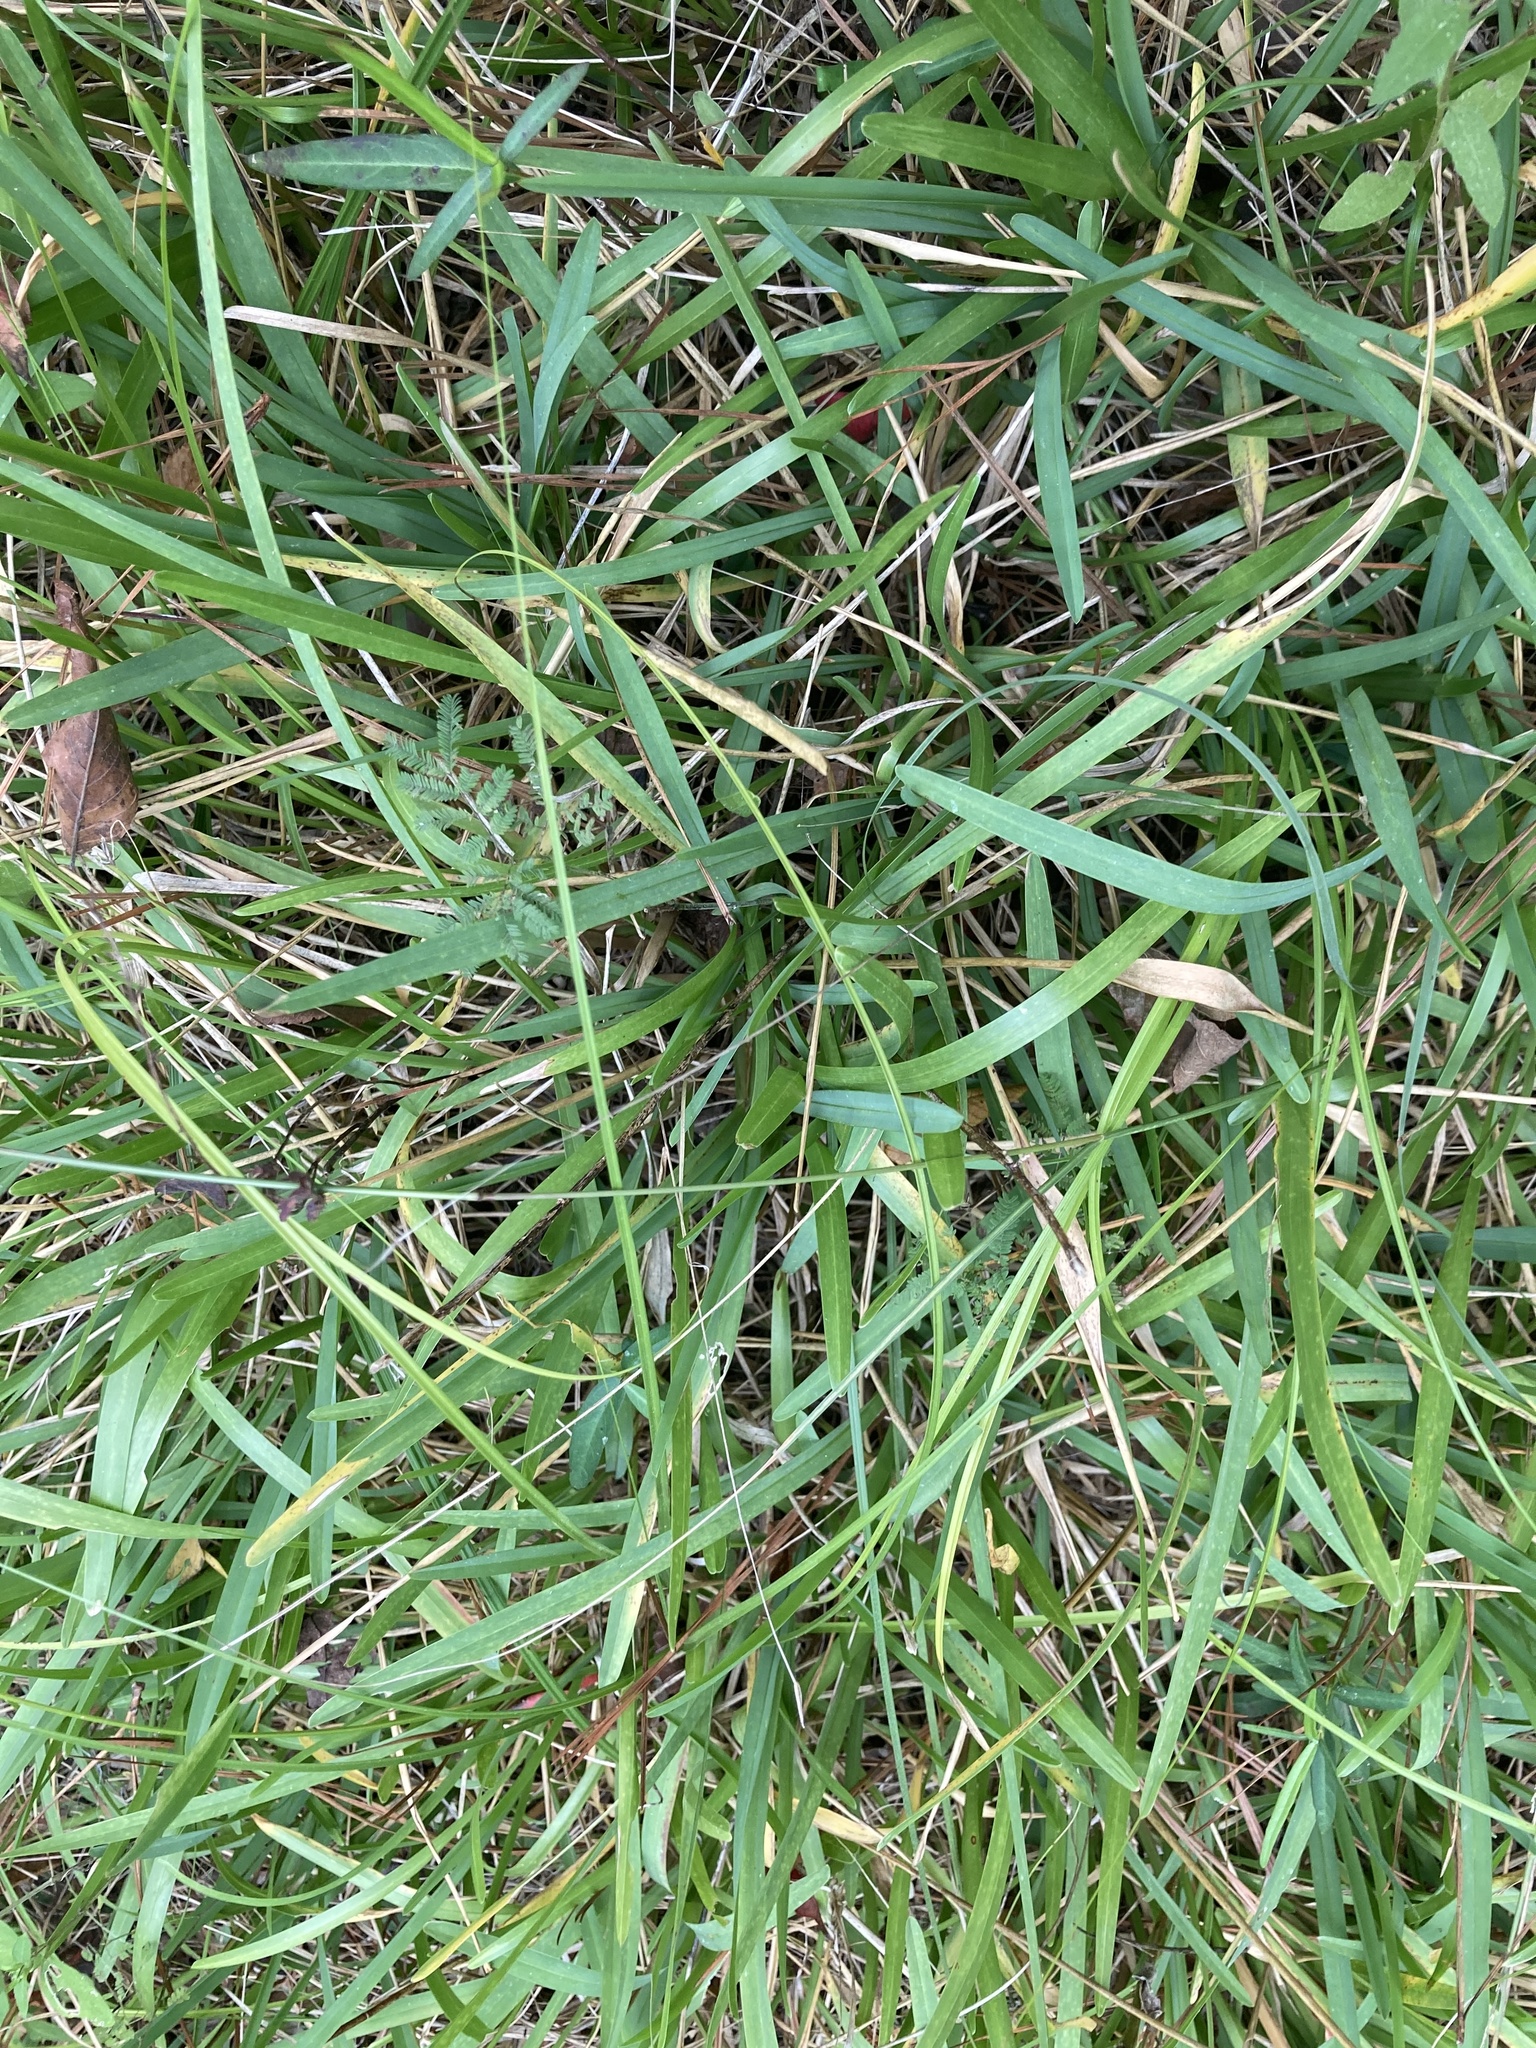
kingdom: Plantae
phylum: Tracheophyta
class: Liliopsida
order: Poales
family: Poaceae
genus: Stenotaphrum
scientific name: Stenotaphrum secundatum
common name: St. augustine grass
